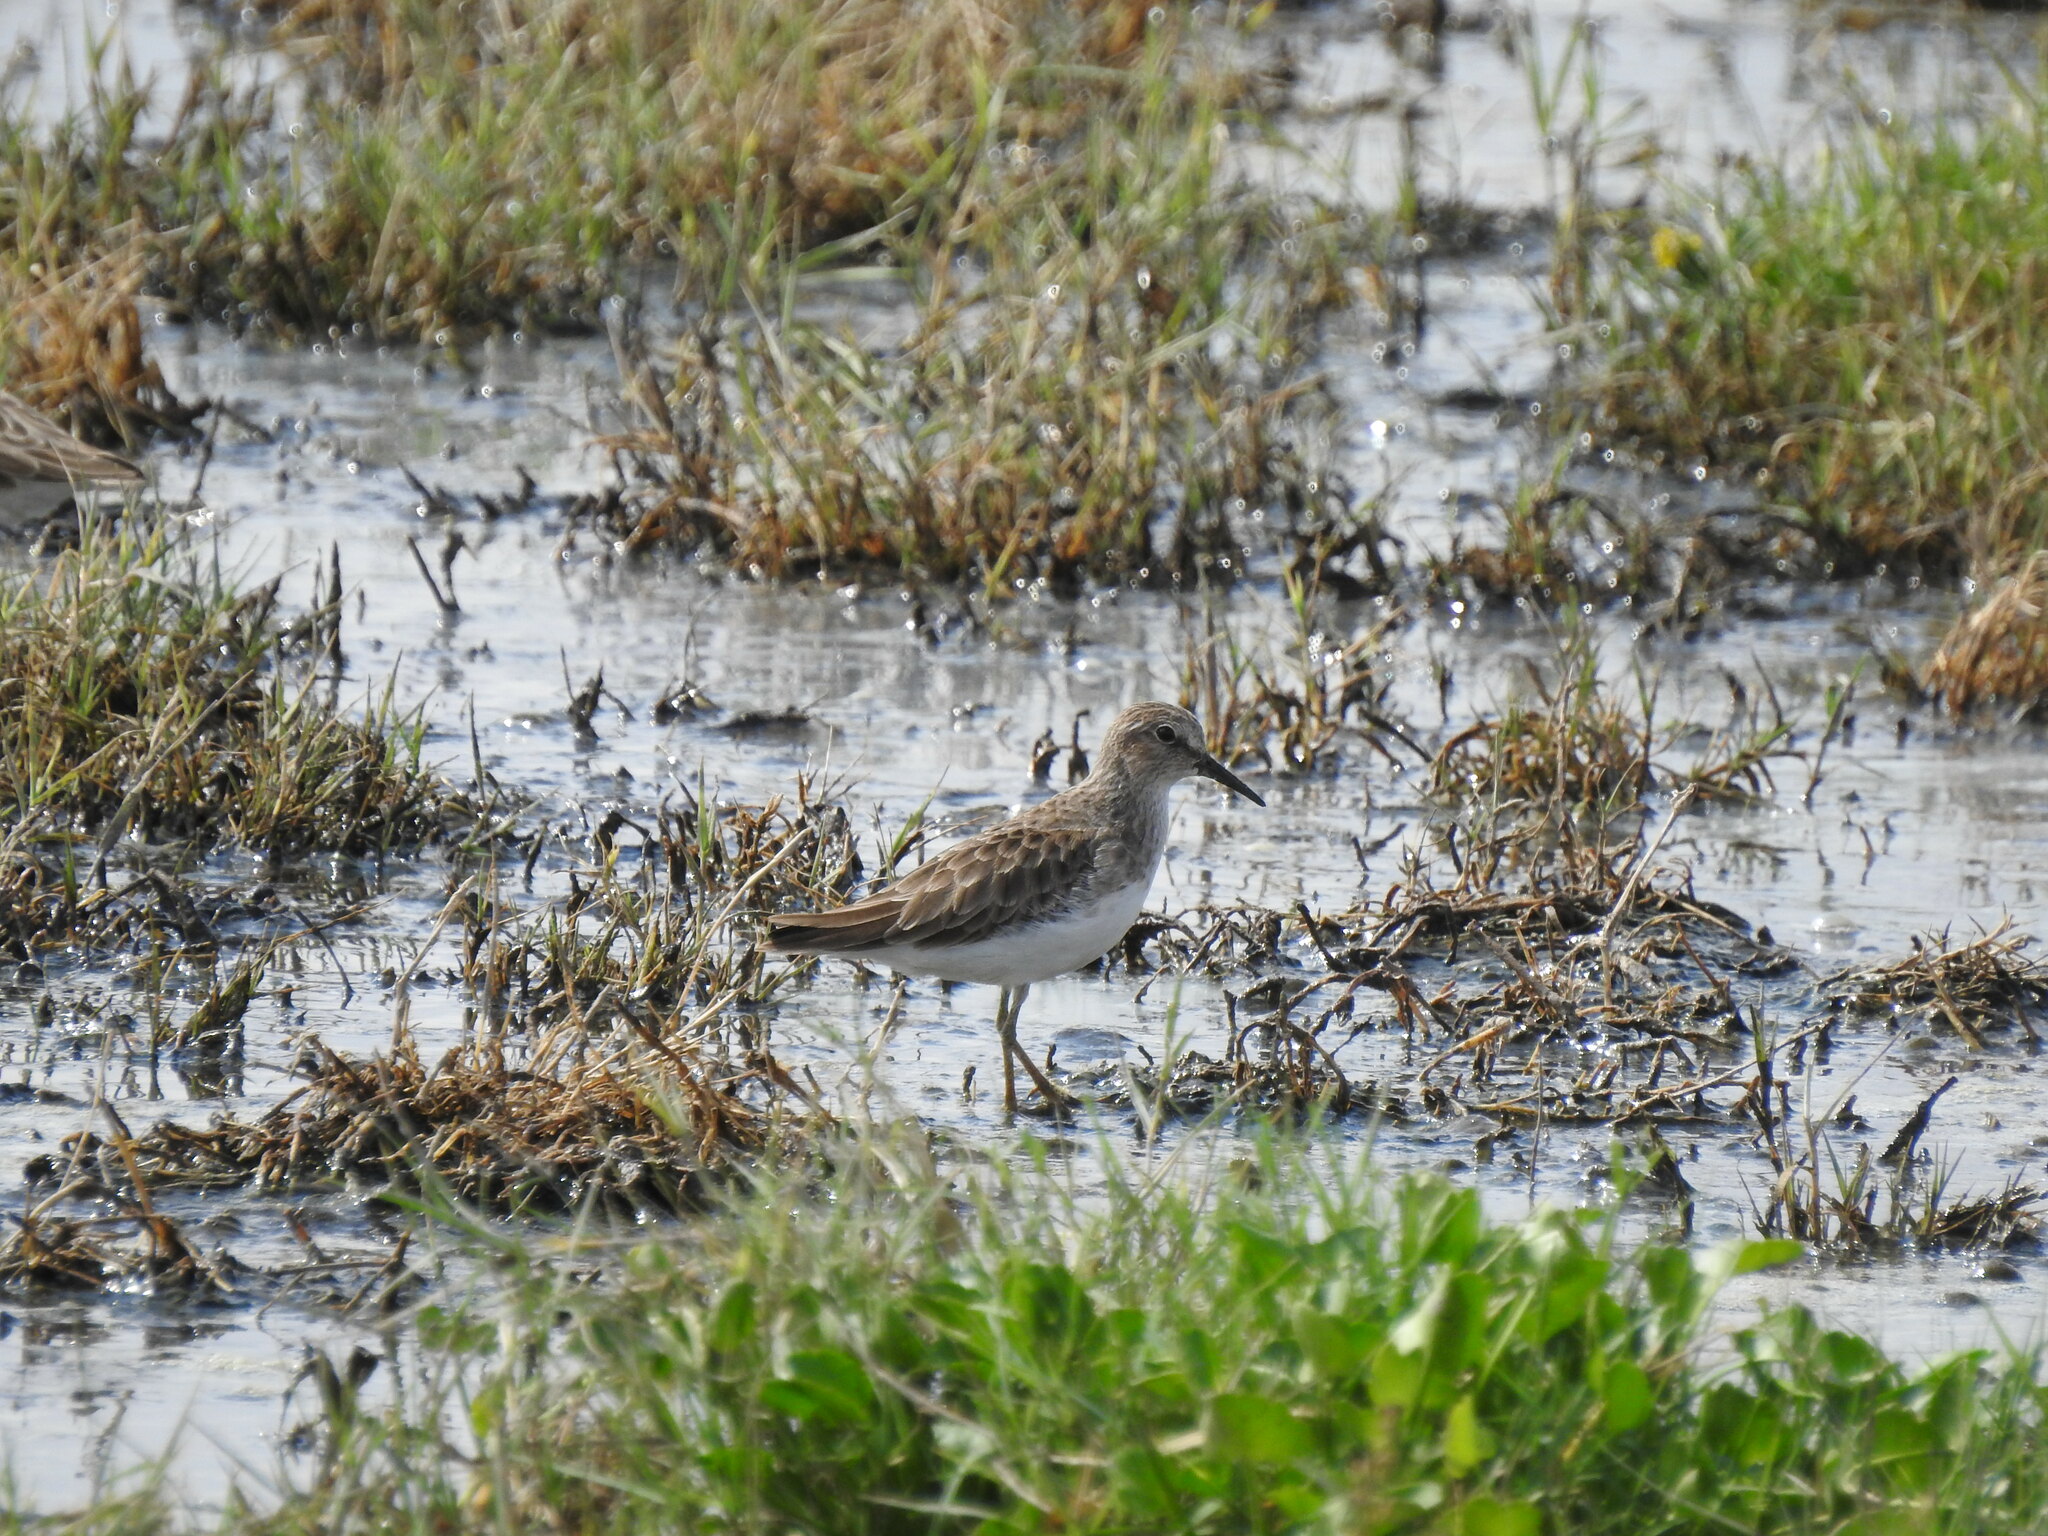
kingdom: Animalia
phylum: Chordata
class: Aves
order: Charadriiformes
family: Scolopacidae
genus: Calidris
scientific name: Calidris minutilla
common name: Least sandpiper
